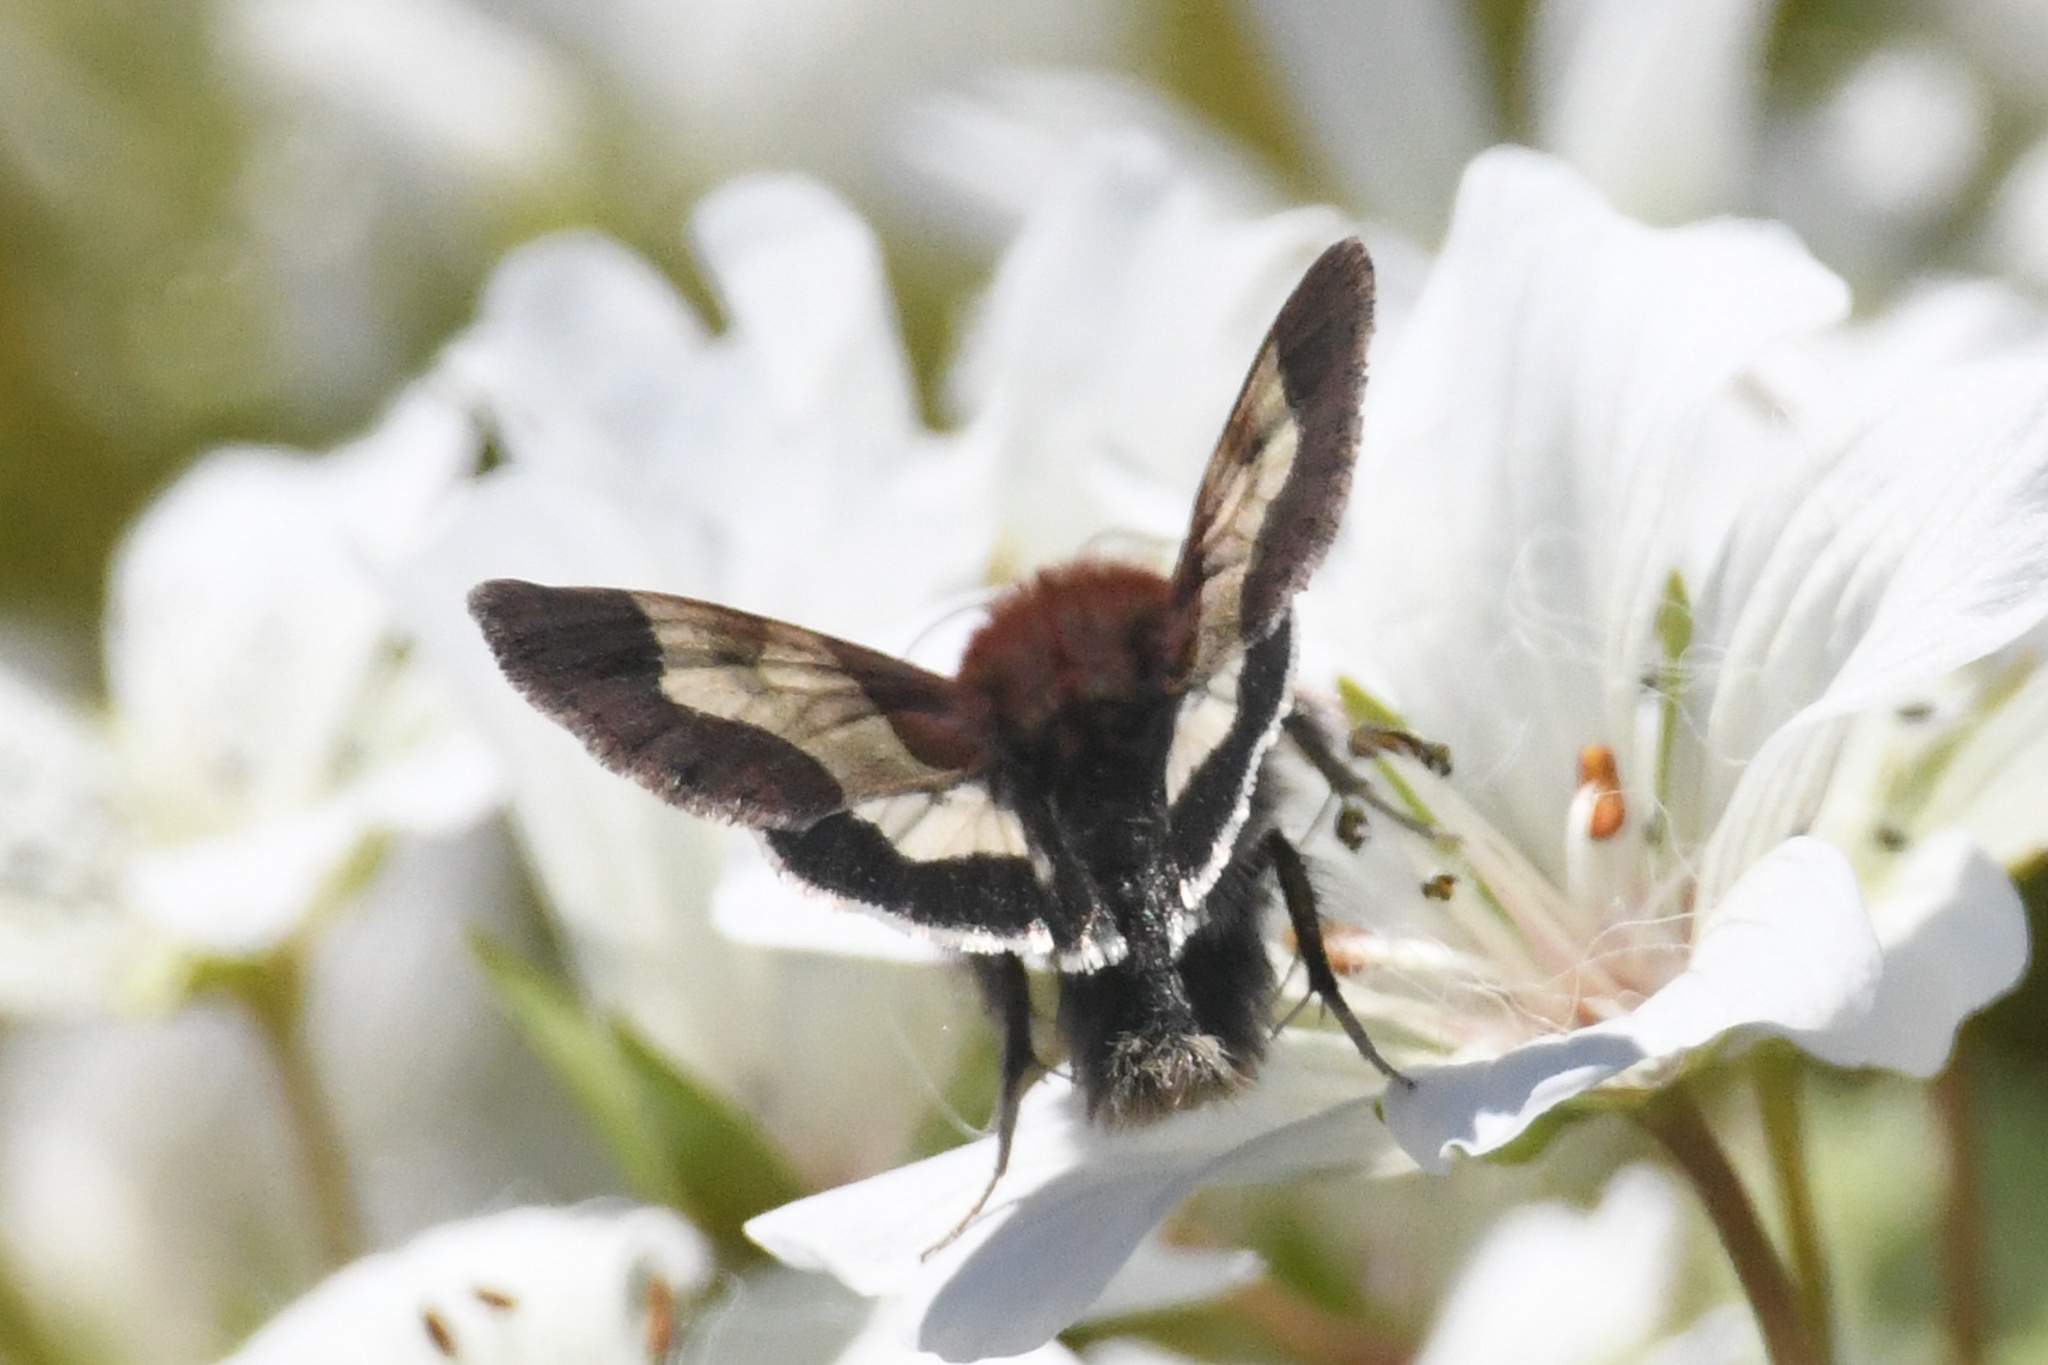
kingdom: Animalia
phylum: Arthropoda
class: Insecta
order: Lepidoptera
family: Noctuidae
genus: Heliothis
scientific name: Heliothis prorupta
